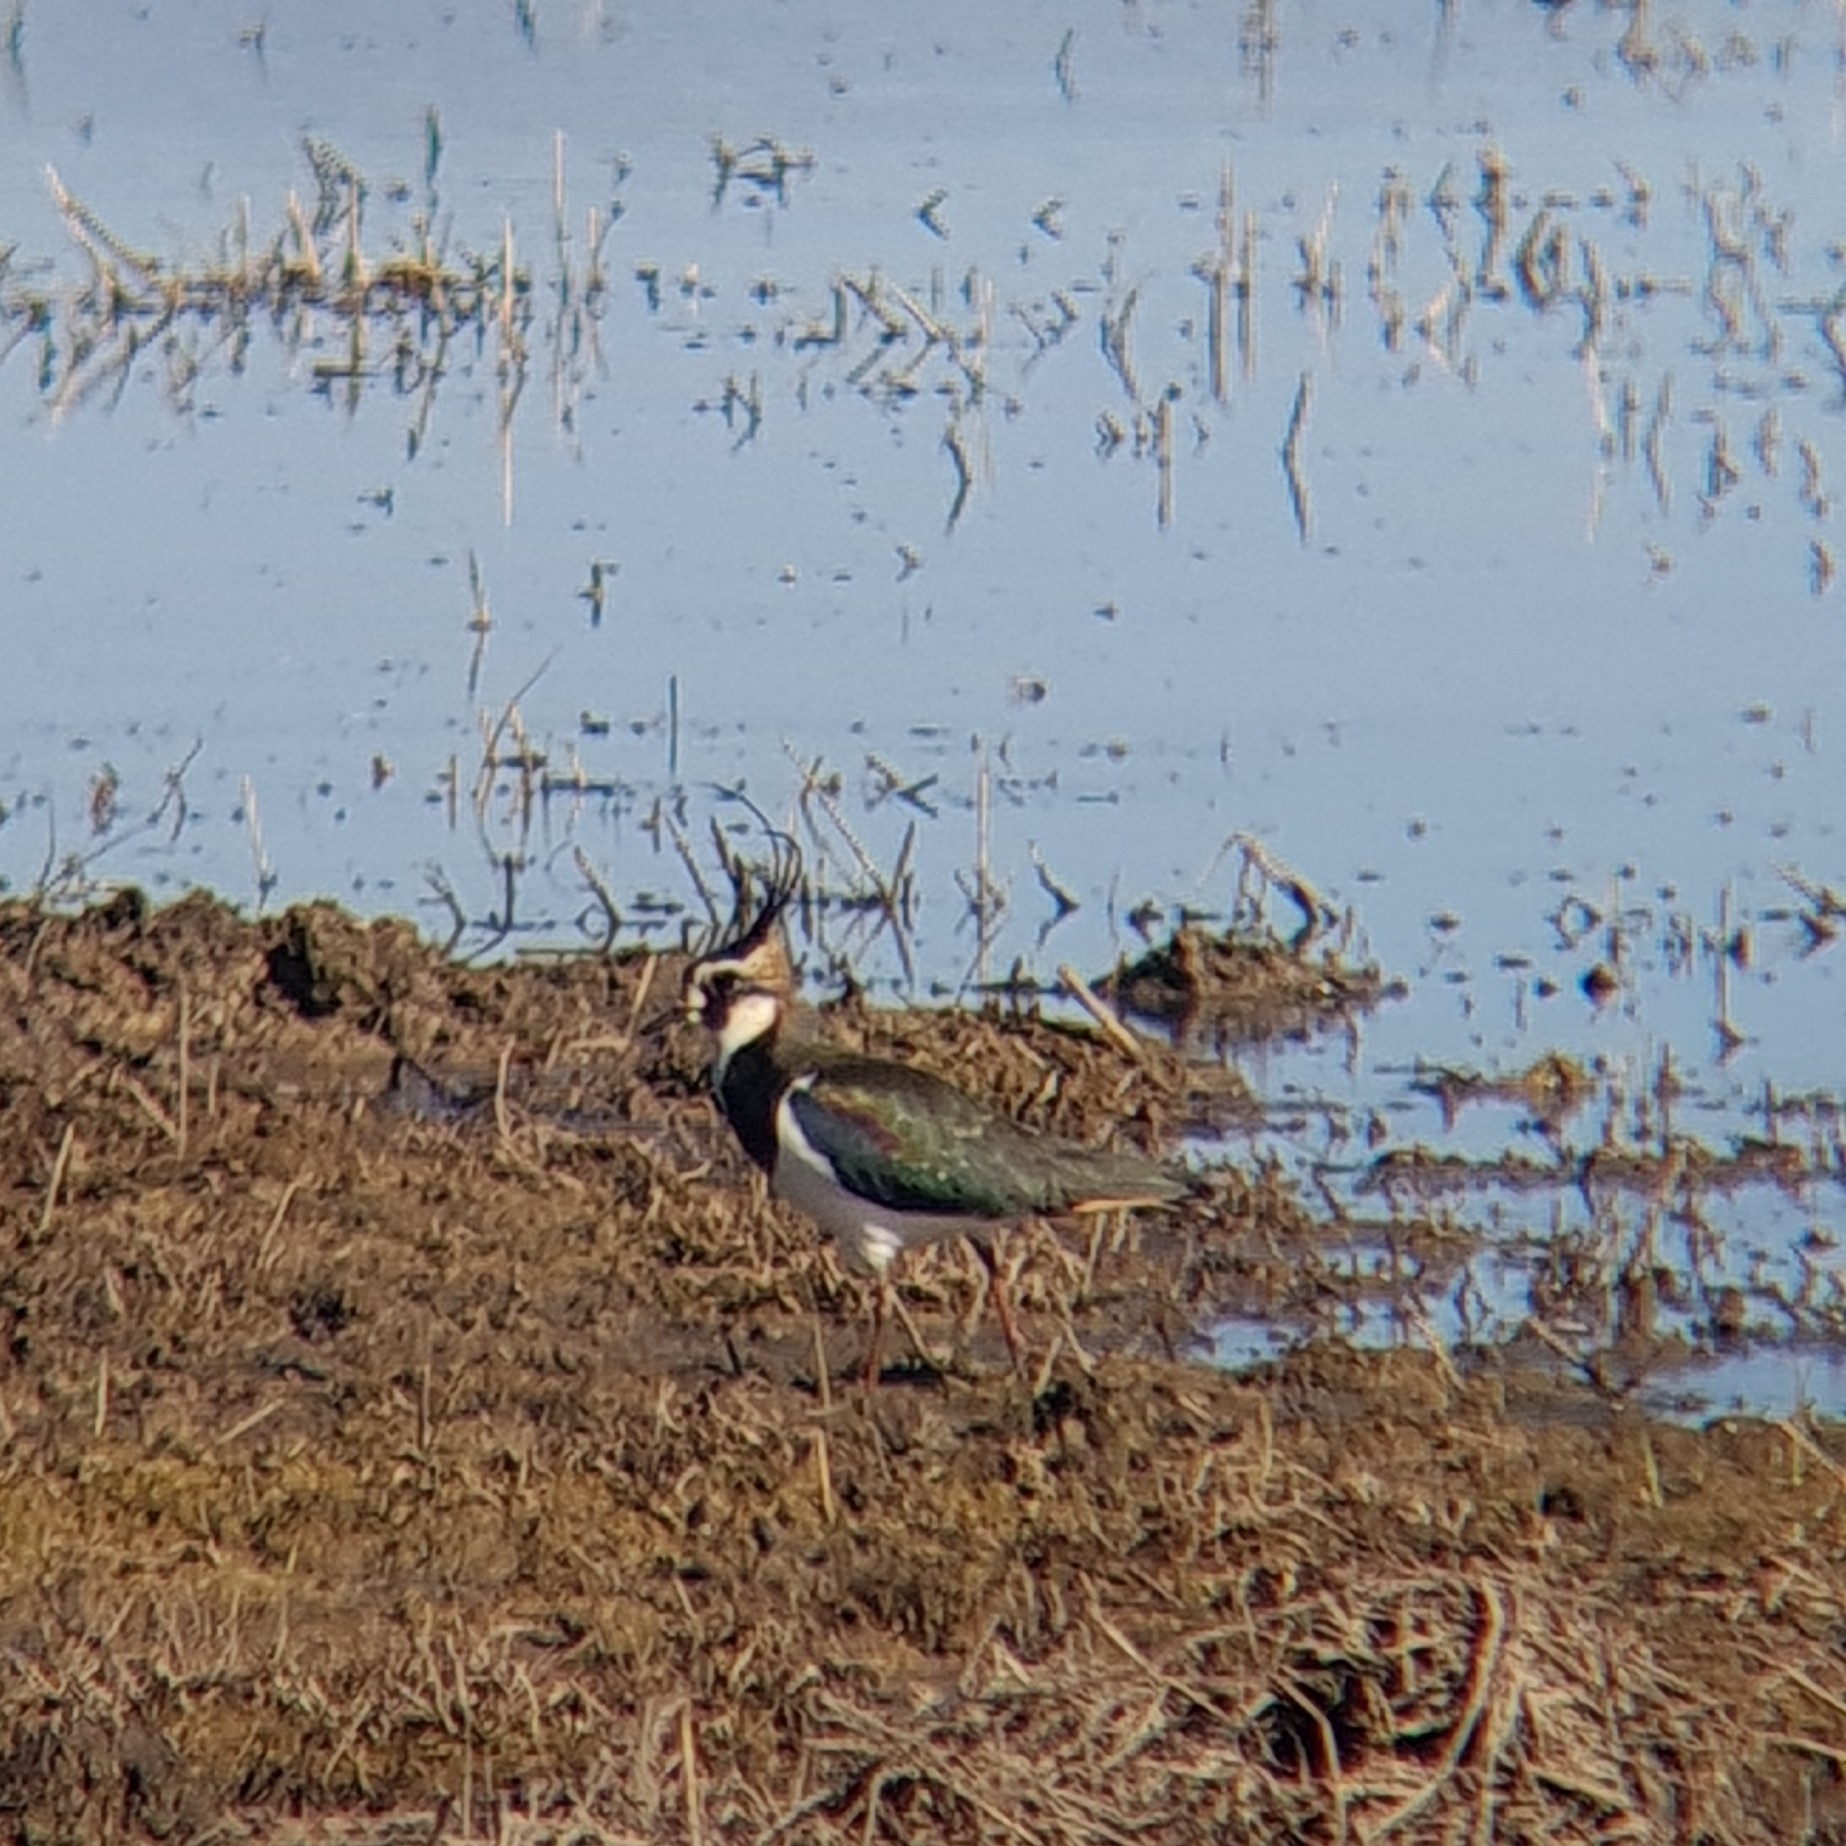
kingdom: Animalia
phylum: Chordata
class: Aves
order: Charadriiformes
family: Charadriidae
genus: Vanellus
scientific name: Vanellus vanellus
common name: Northern lapwing
